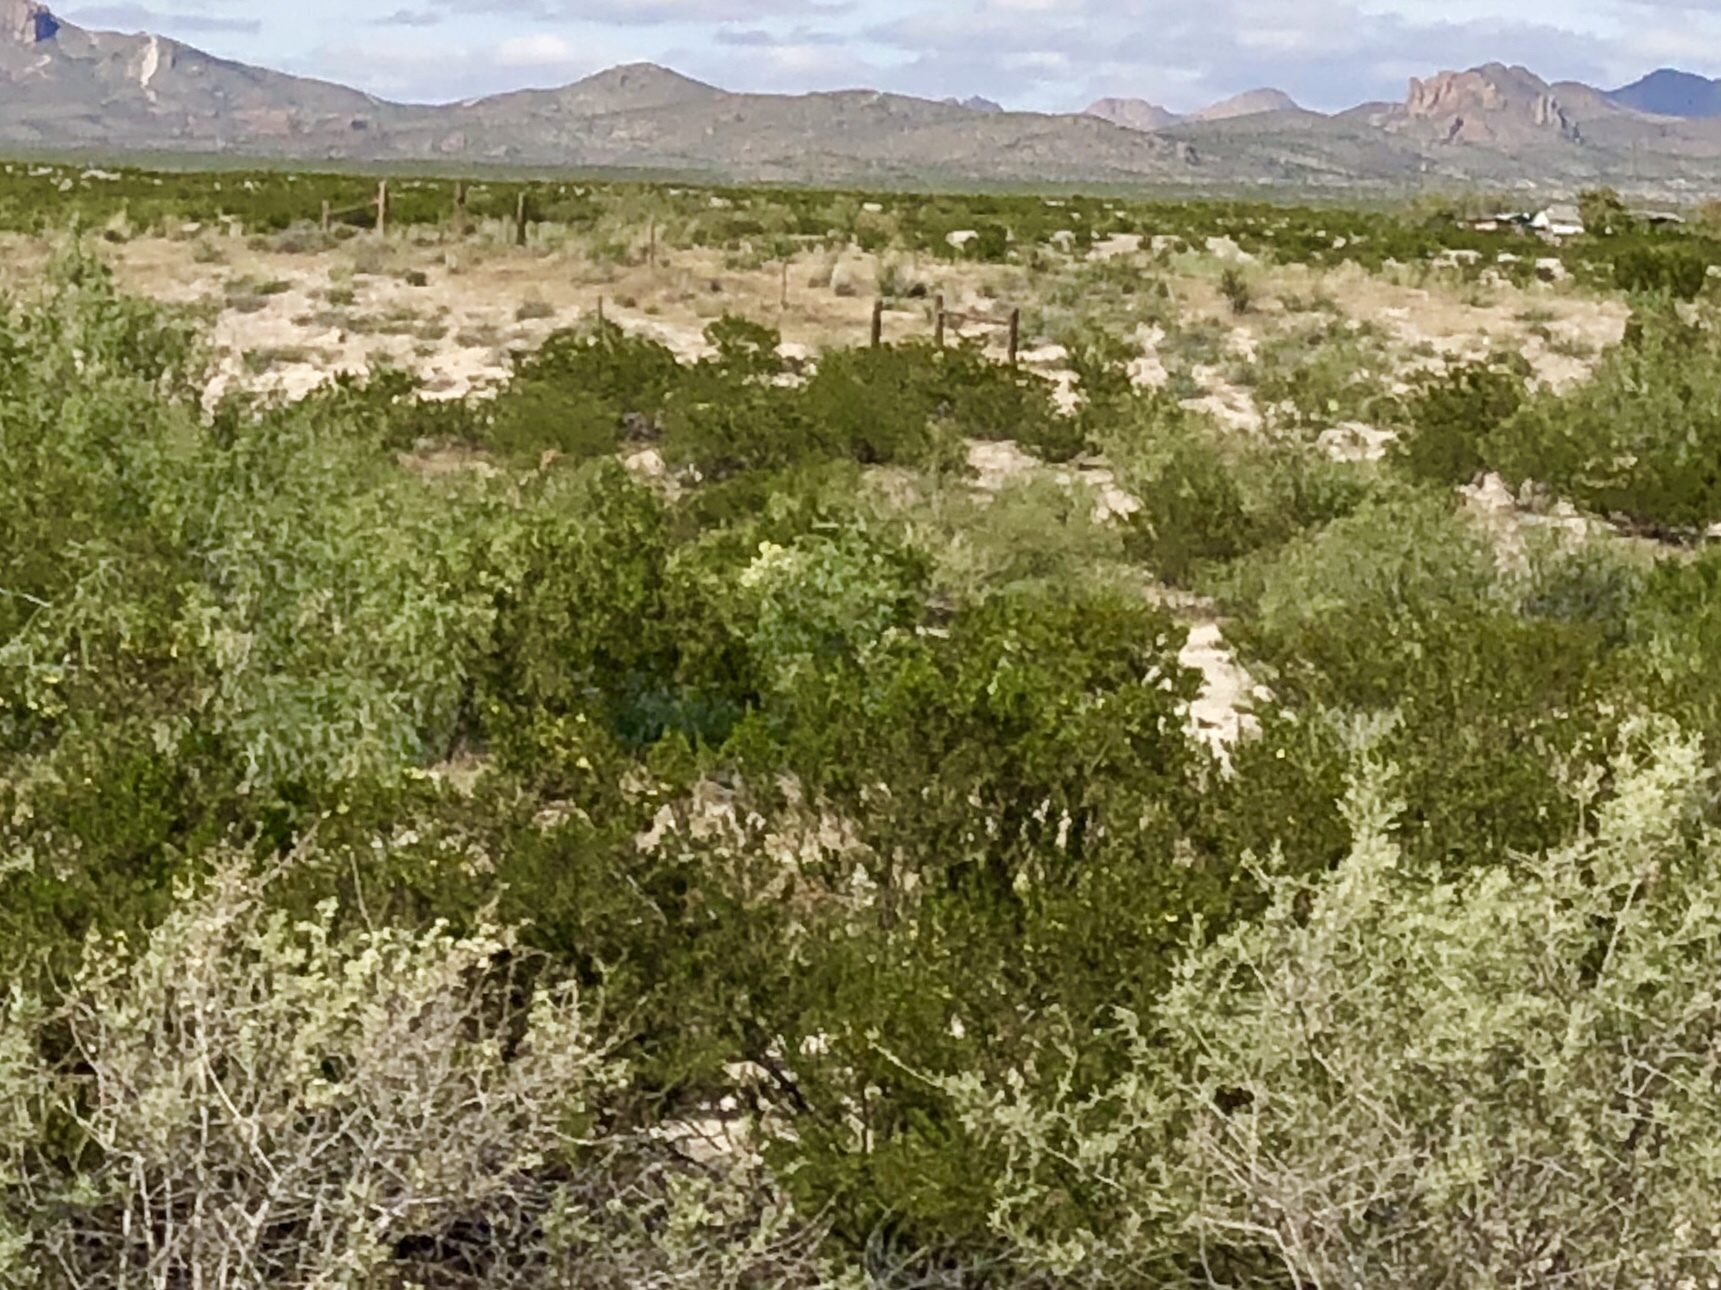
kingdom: Plantae
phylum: Tracheophyta
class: Magnoliopsida
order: Zygophyllales
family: Zygophyllaceae
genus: Larrea
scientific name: Larrea tridentata
